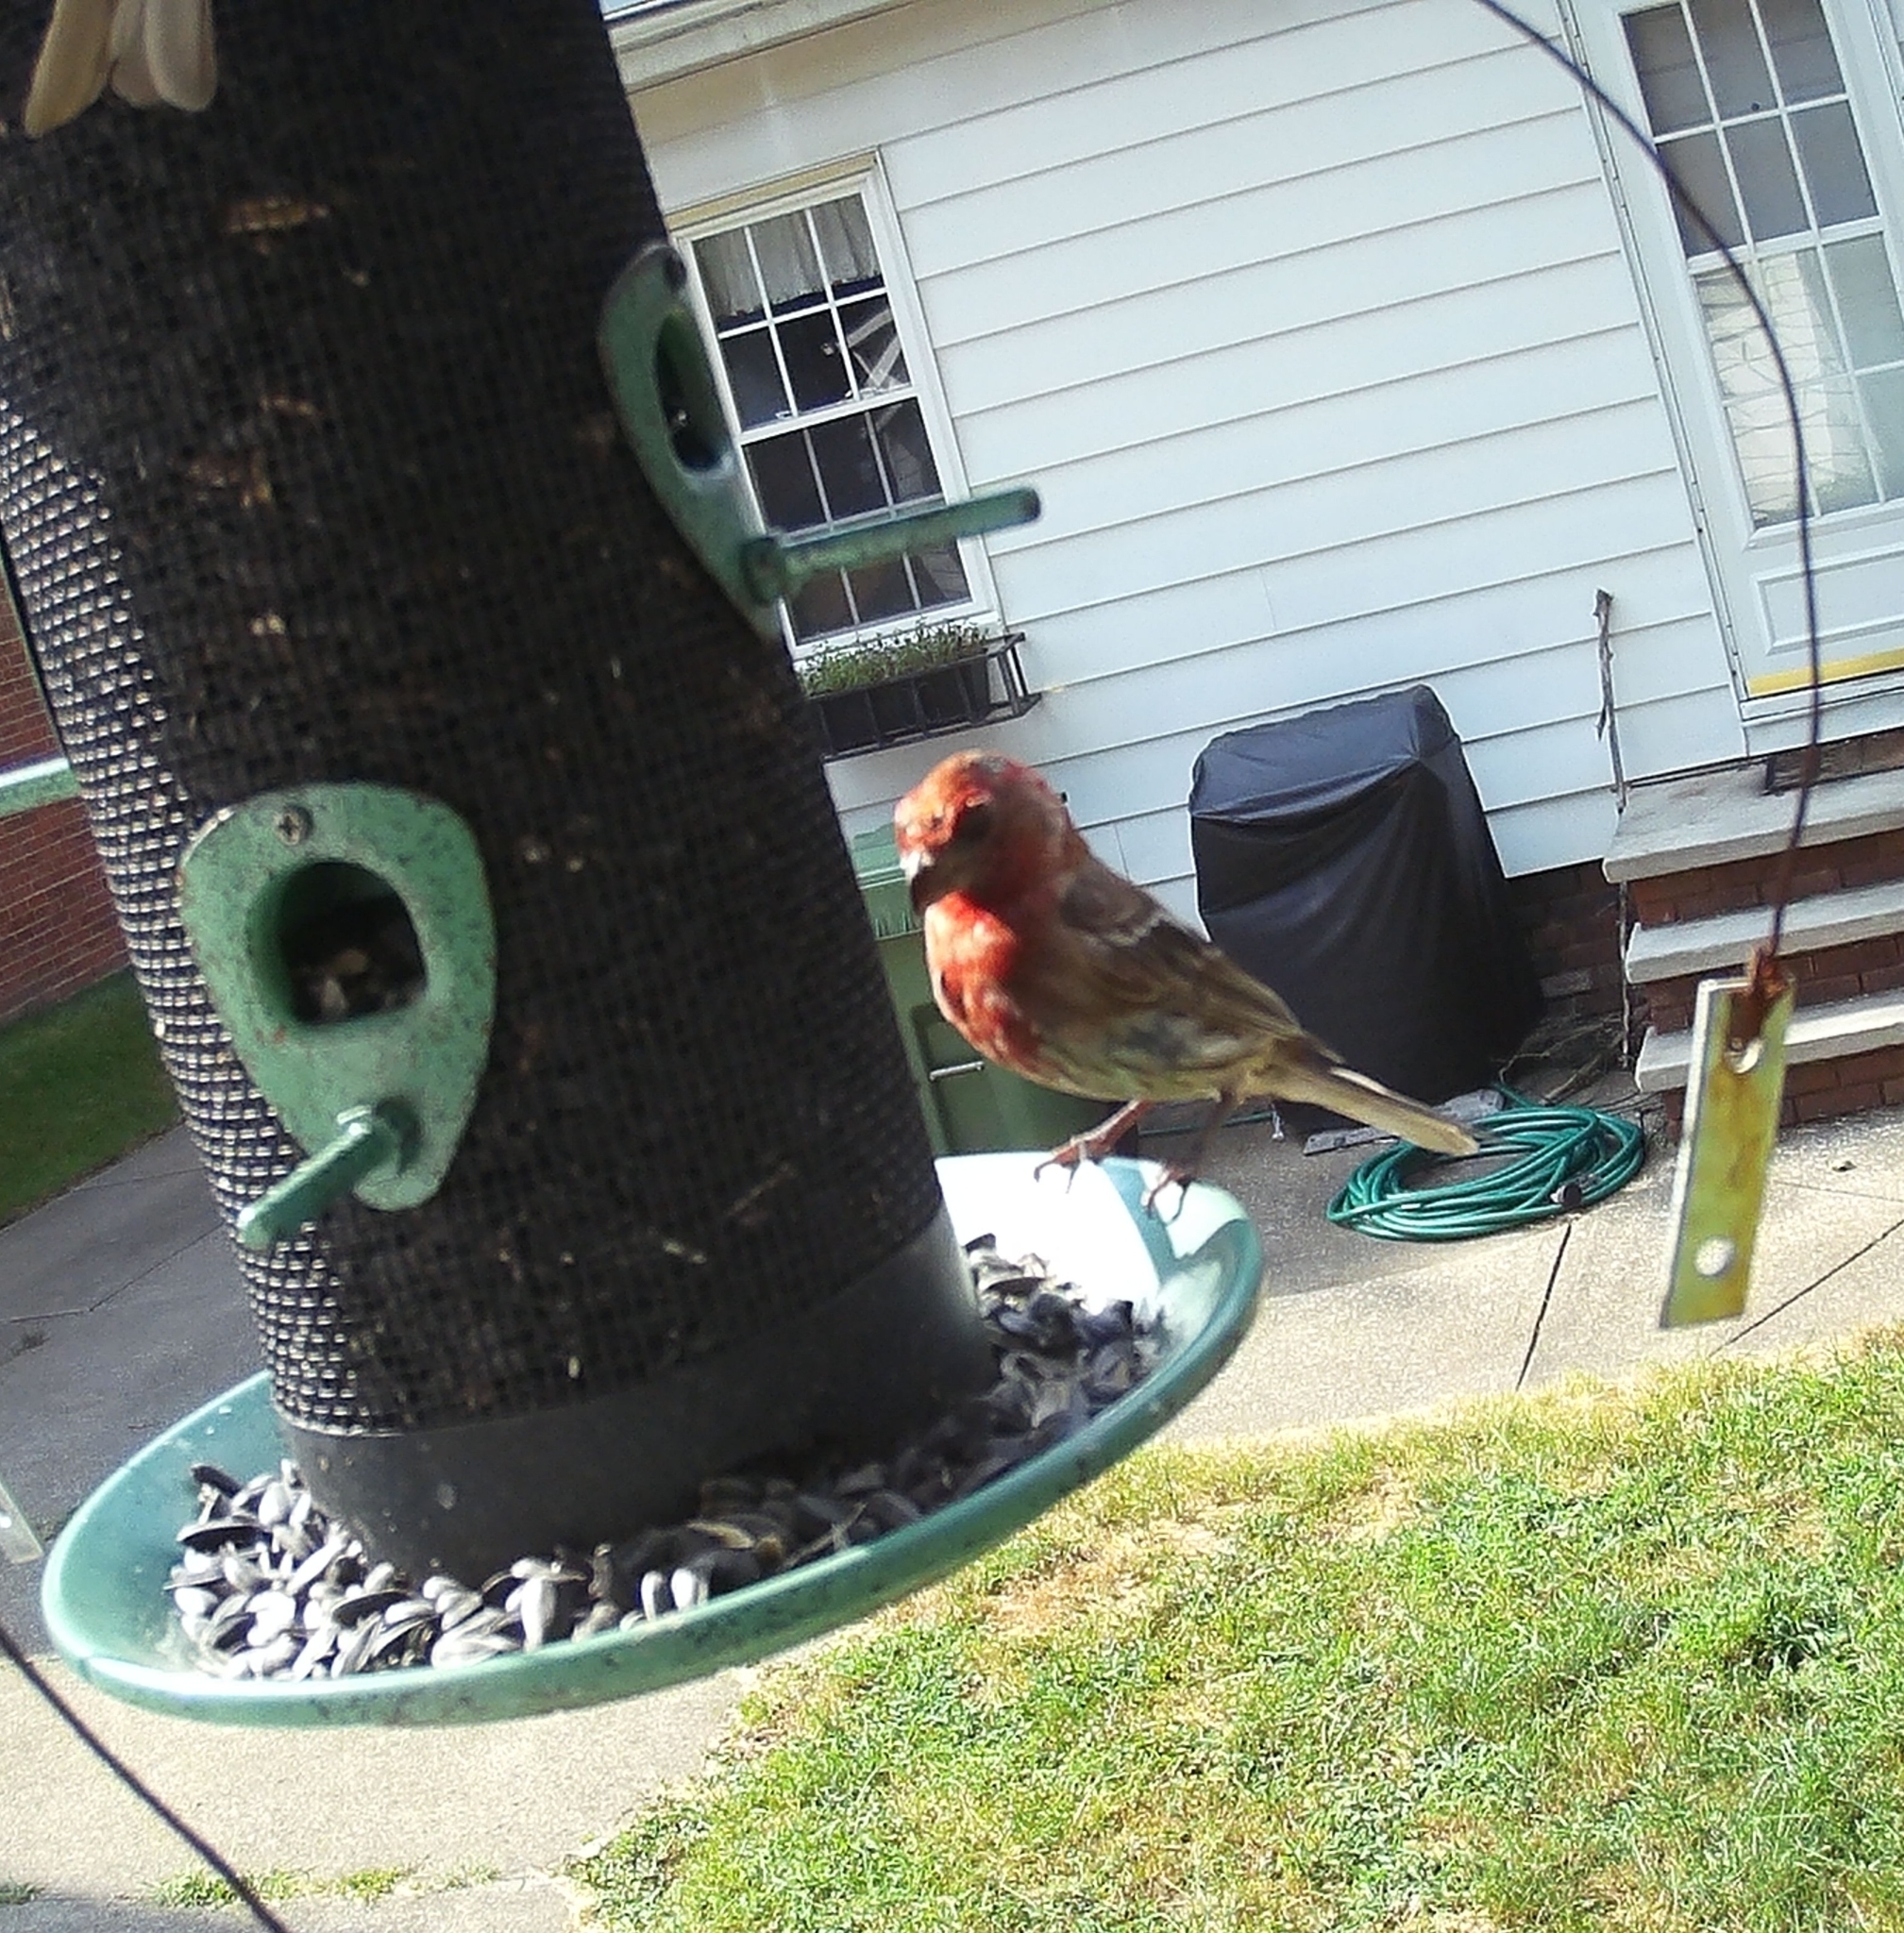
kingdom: Animalia
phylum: Chordata
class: Aves
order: Passeriformes
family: Fringillidae
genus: Haemorhous
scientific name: Haemorhous mexicanus
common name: House finch
